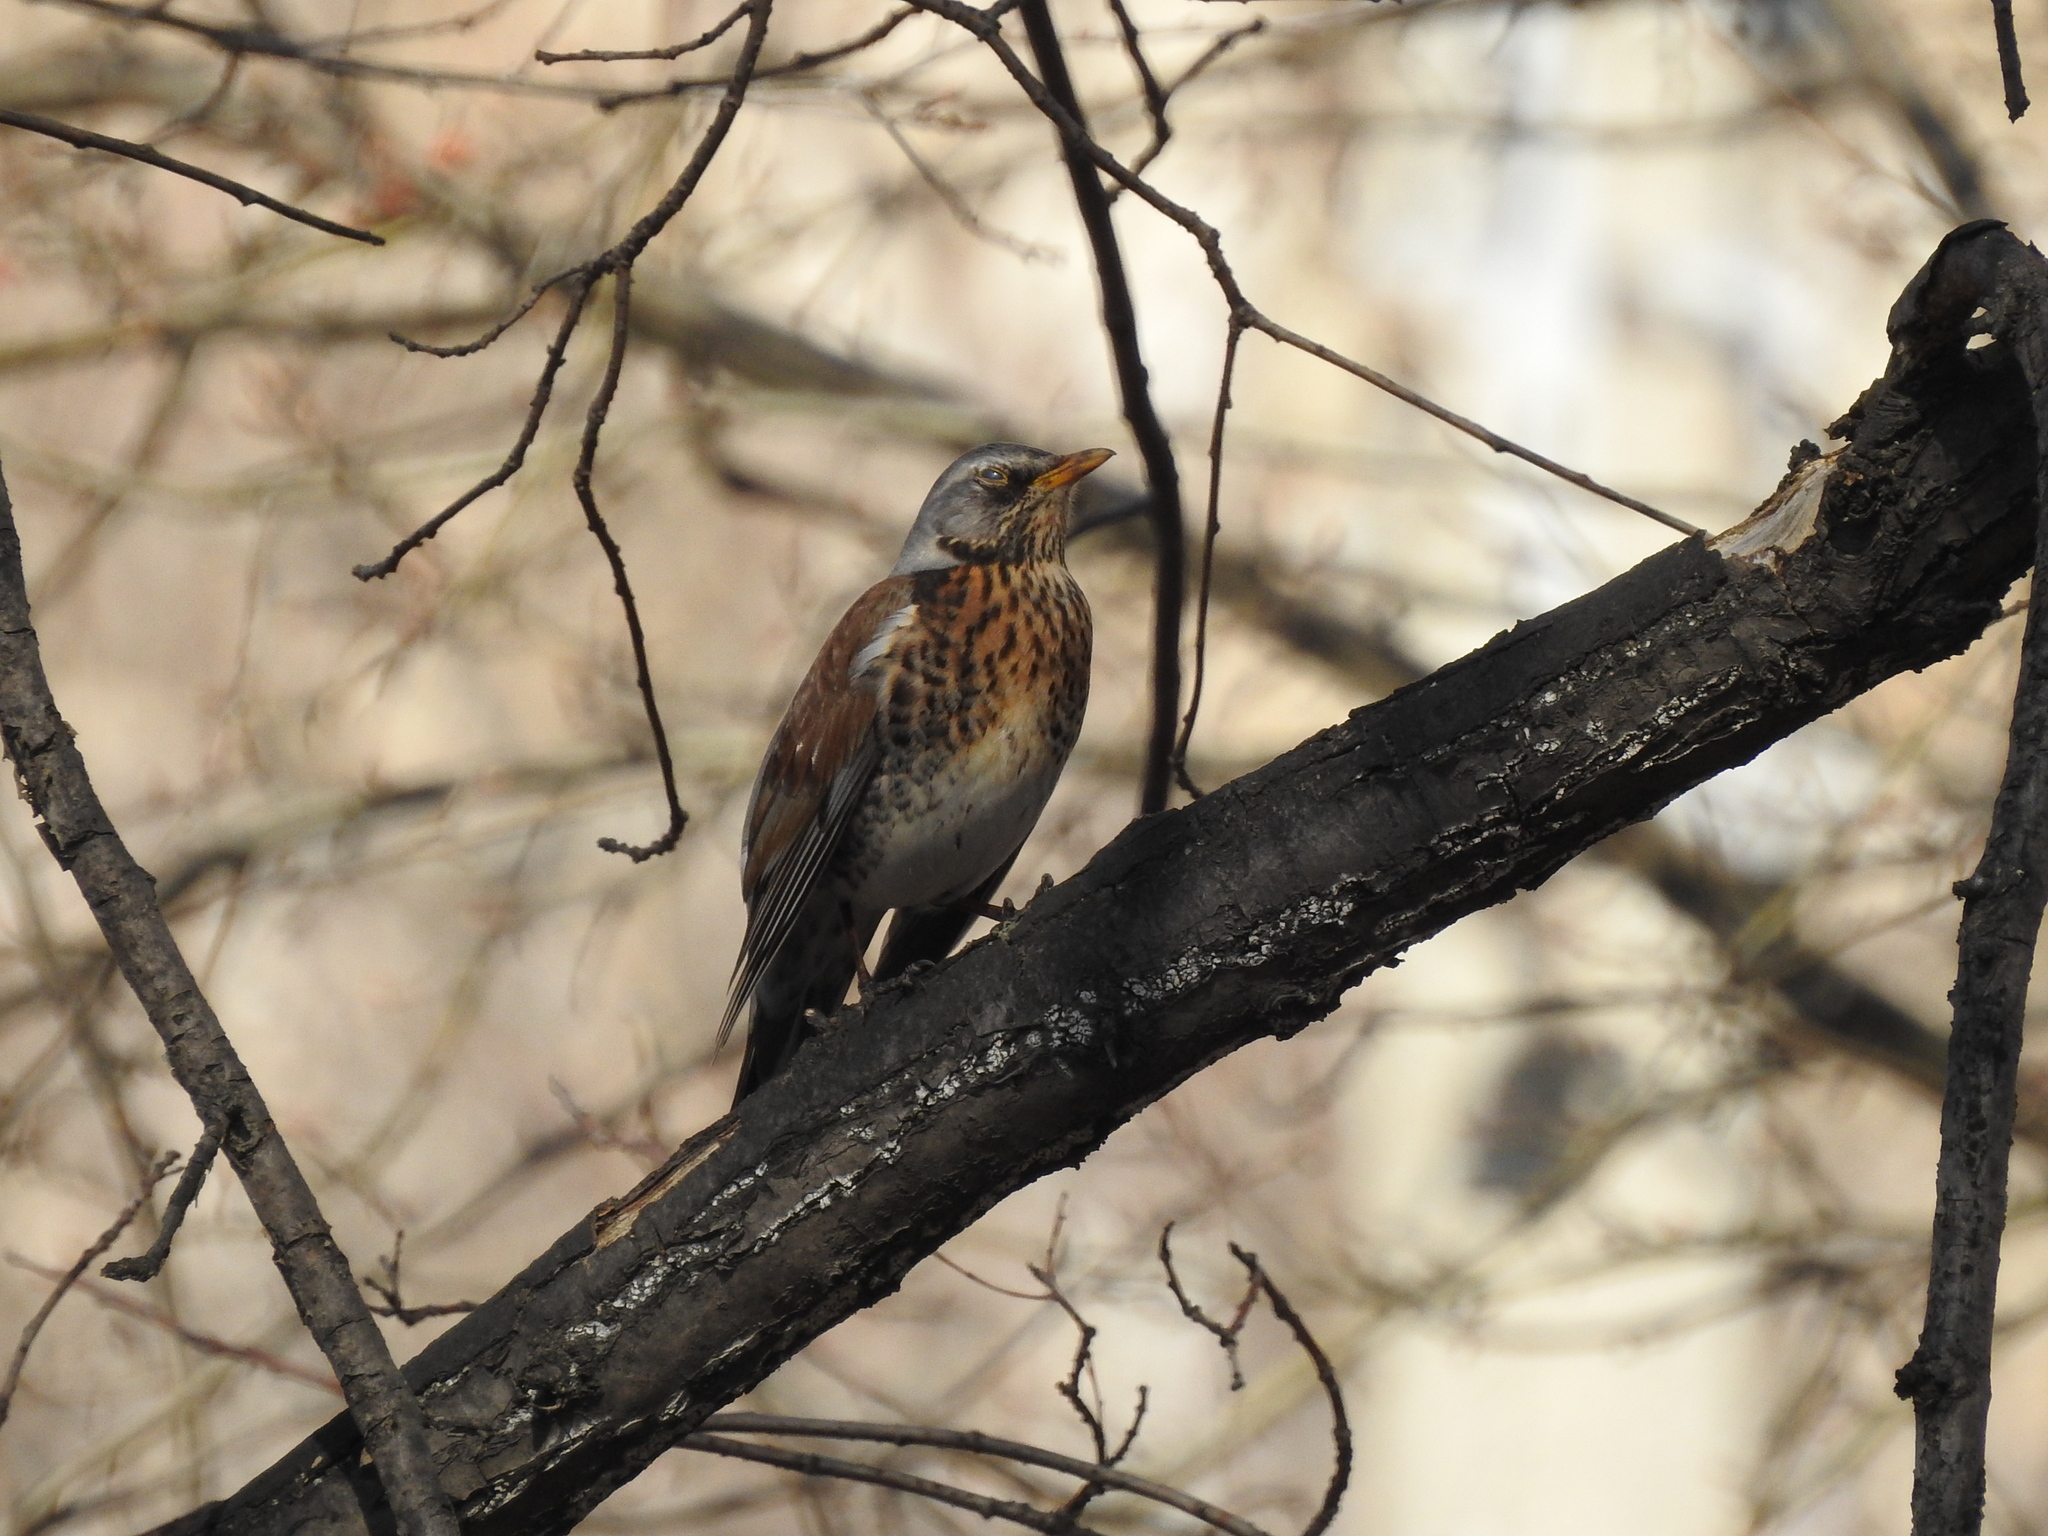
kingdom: Animalia
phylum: Chordata
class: Aves
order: Passeriformes
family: Turdidae
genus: Turdus
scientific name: Turdus pilaris
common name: Fieldfare
